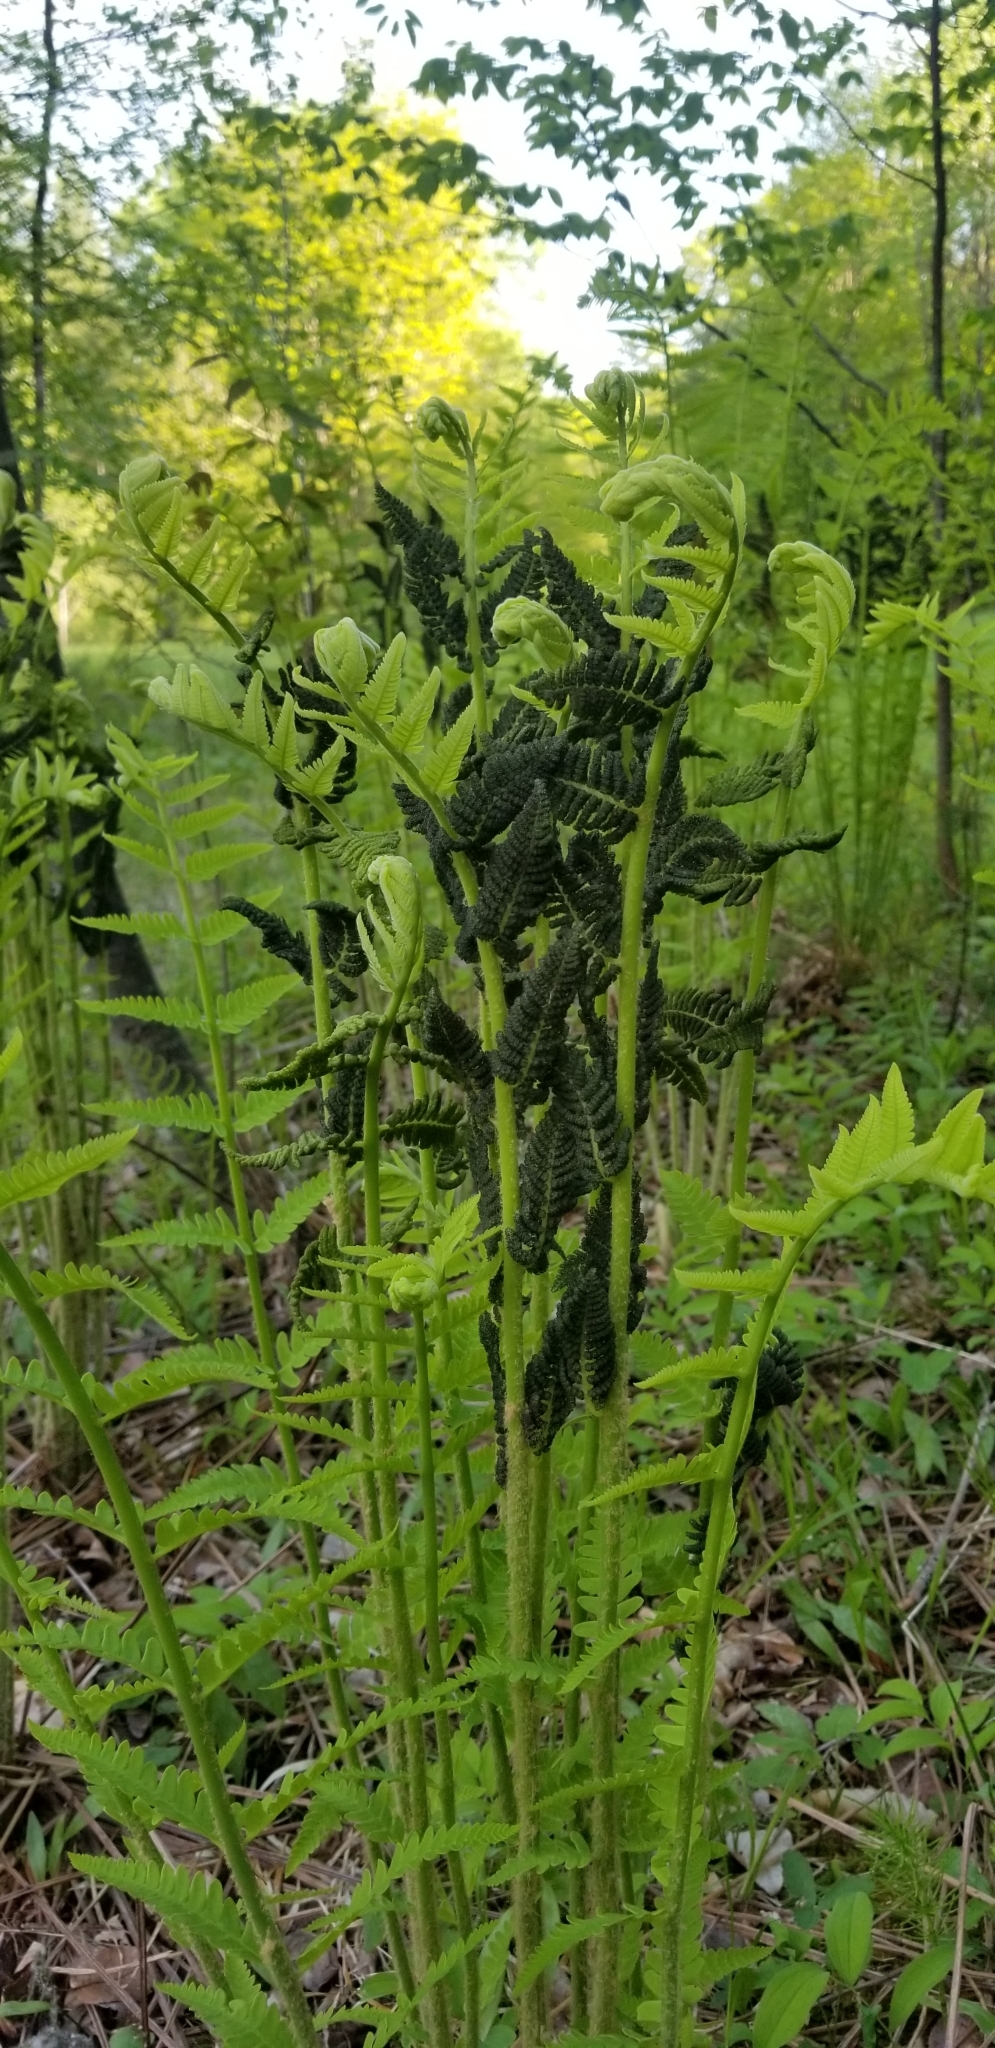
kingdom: Plantae
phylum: Tracheophyta
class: Polypodiopsida
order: Osmundales
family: Osmundaceae
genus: Claytosmunda
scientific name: Claytosmunda claytoniana
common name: Clayton's fern
